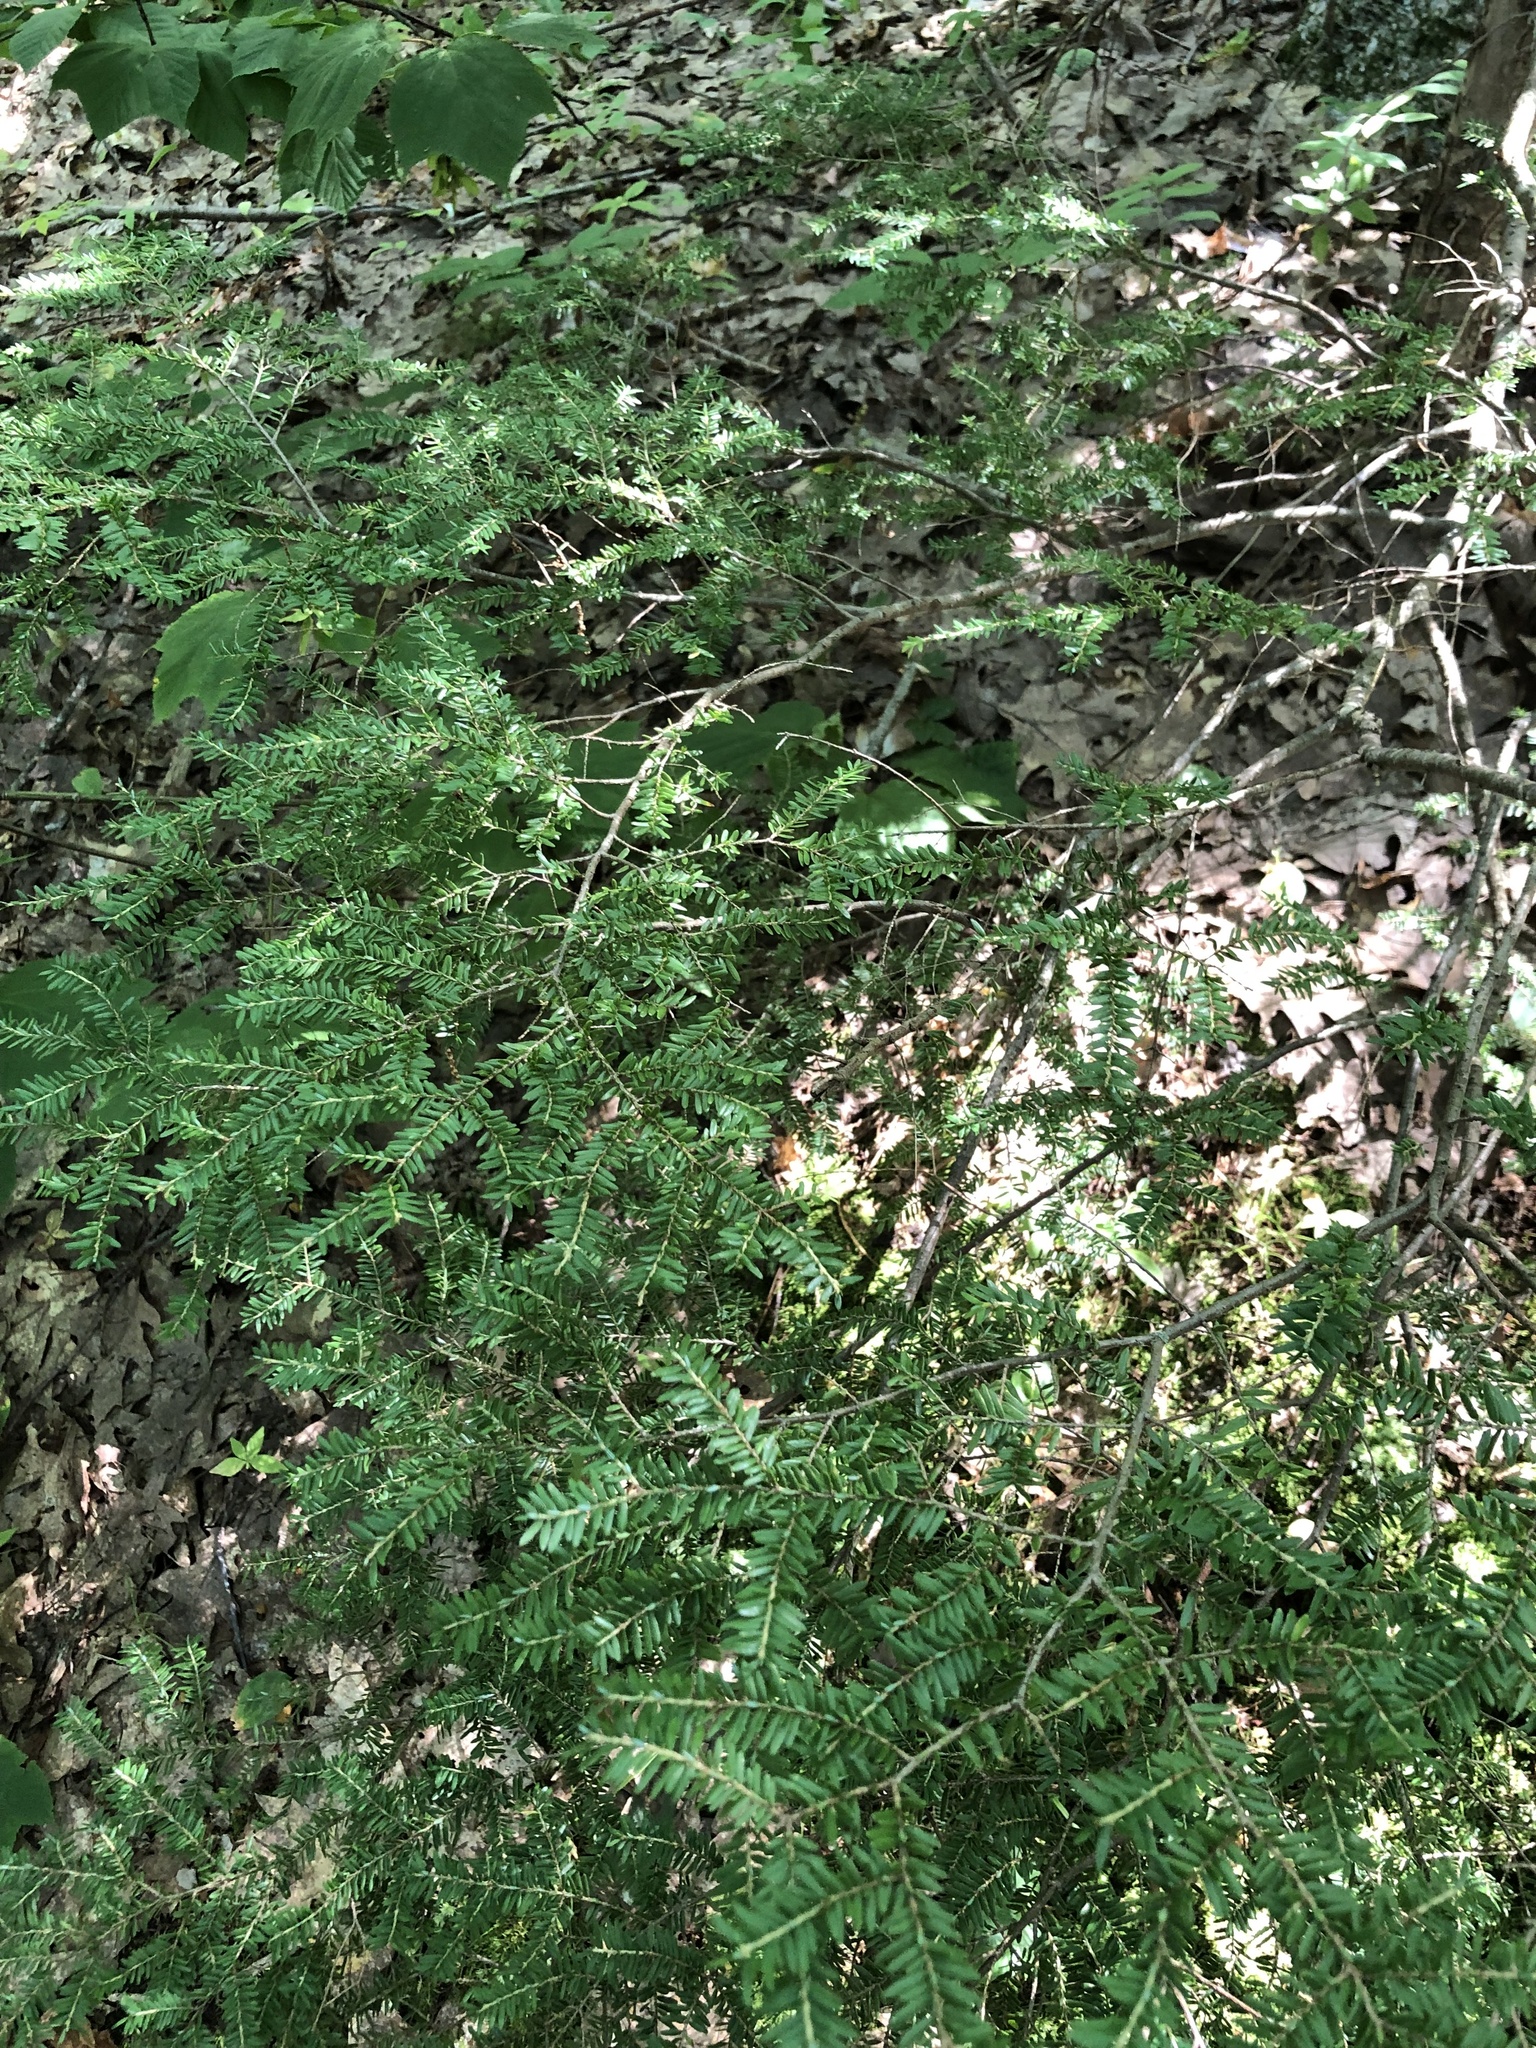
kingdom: Plantae
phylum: Tracheophyta
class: Pinopsida
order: Pinales
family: Pinaceae
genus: Tsuga
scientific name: Tsuga canadensis
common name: Eastern hemlock
